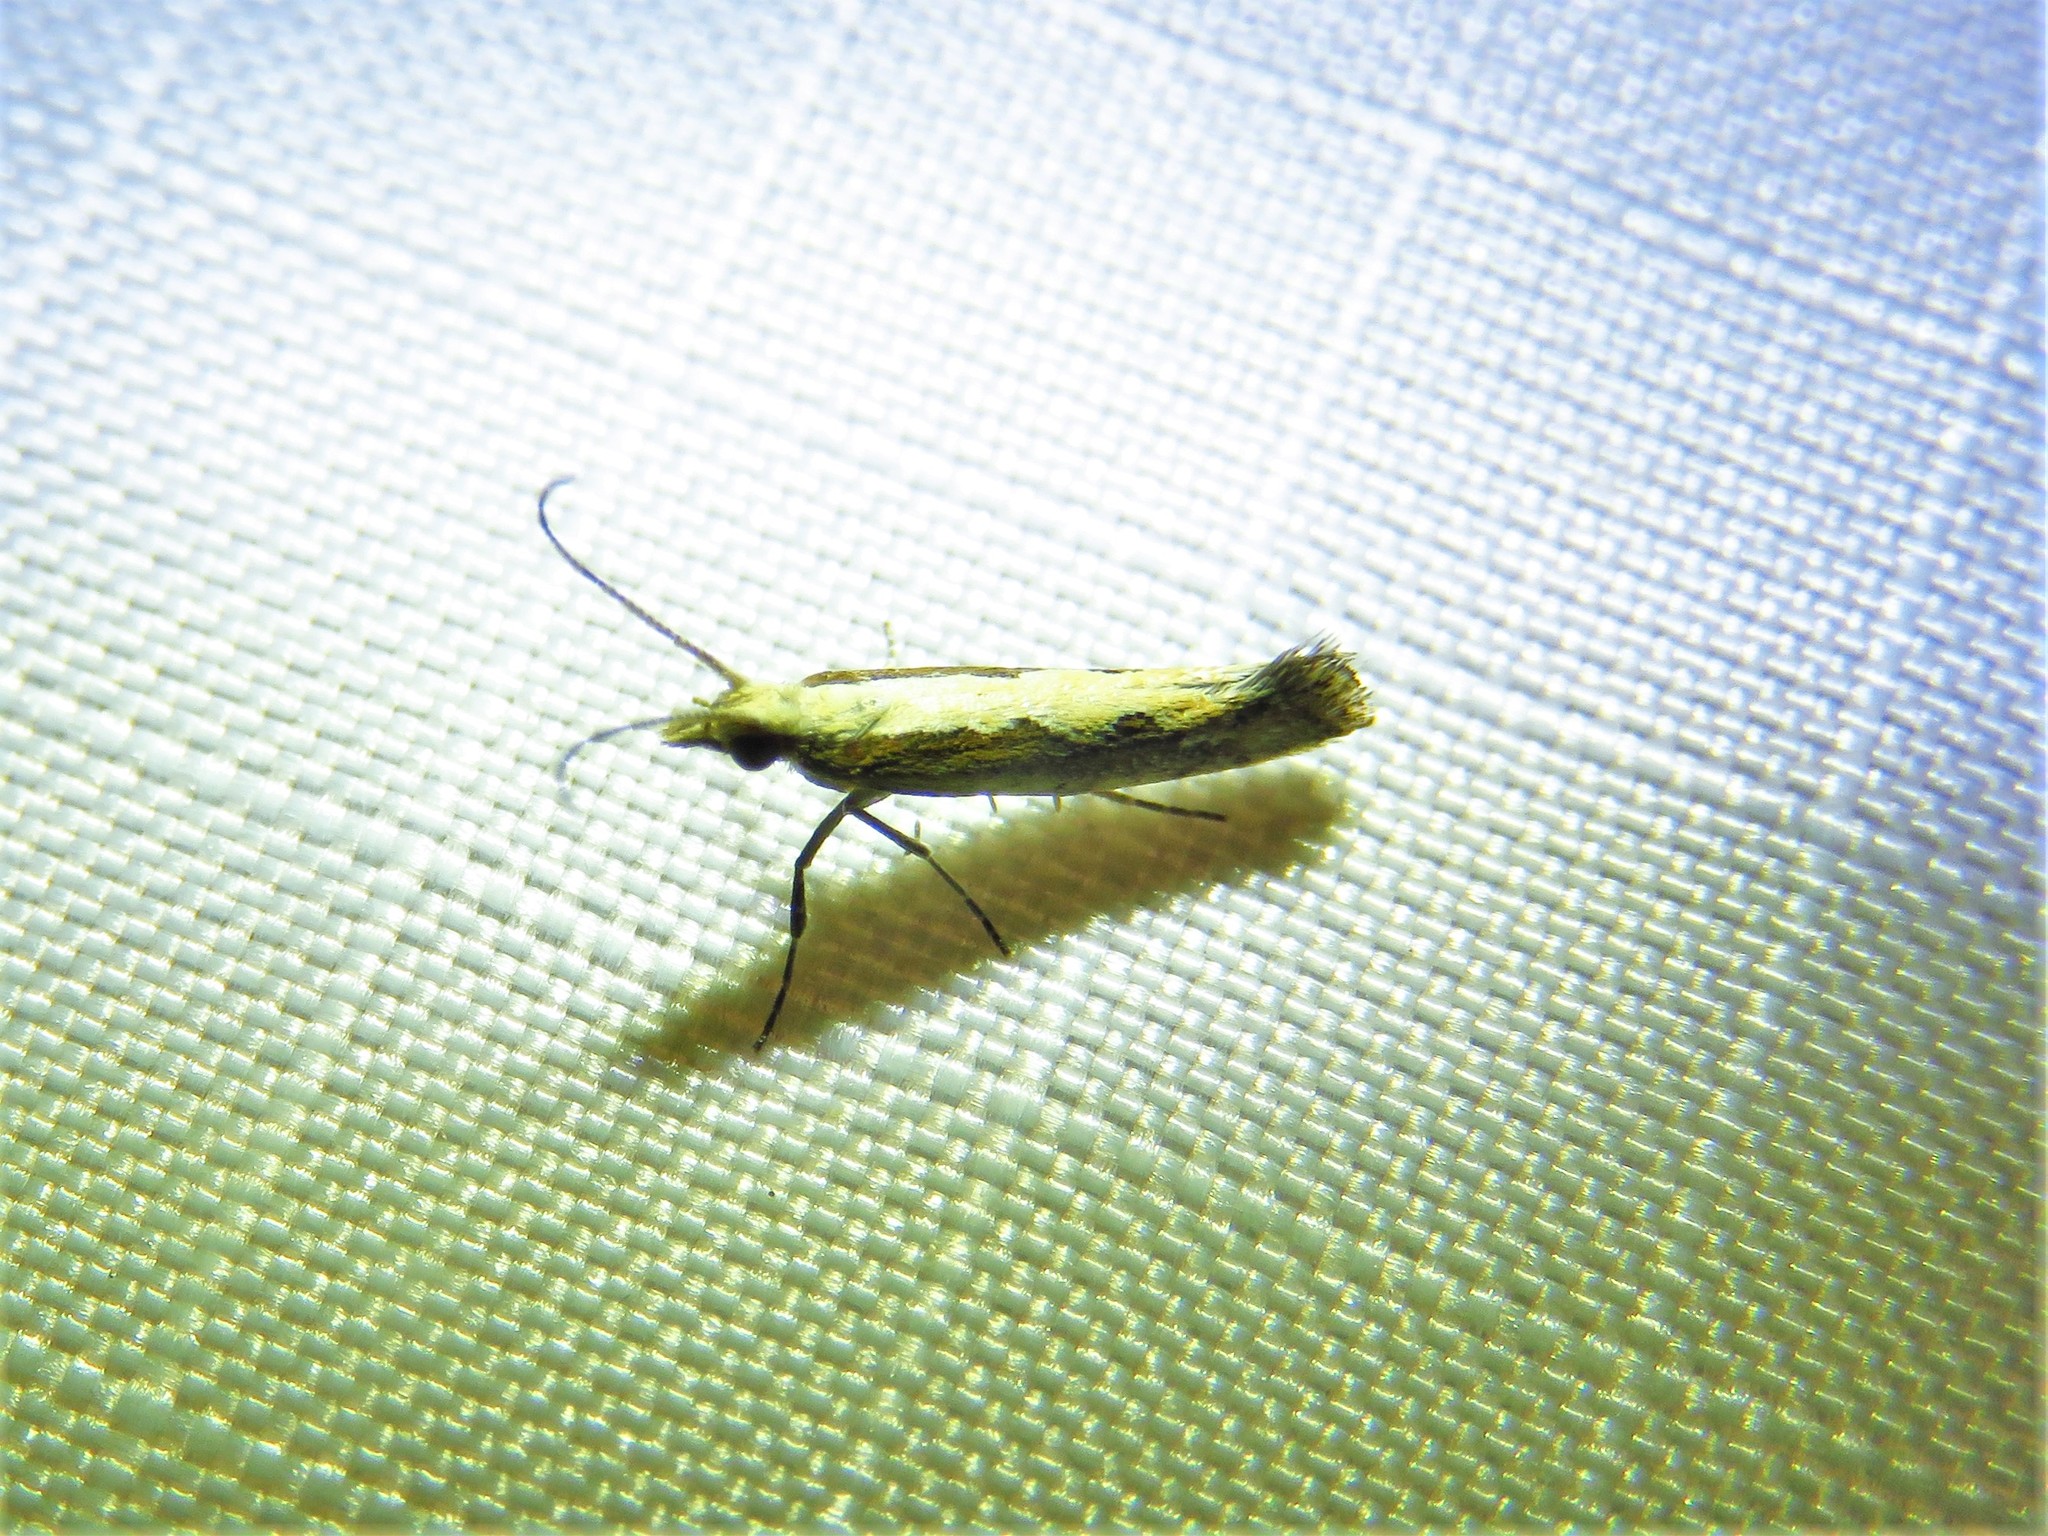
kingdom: Animalia
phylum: Arthropoda
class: Insecta
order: Lepidoptera
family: Plutellidae
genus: Plutella
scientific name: Plutella xylostella
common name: Diamond-back moth
